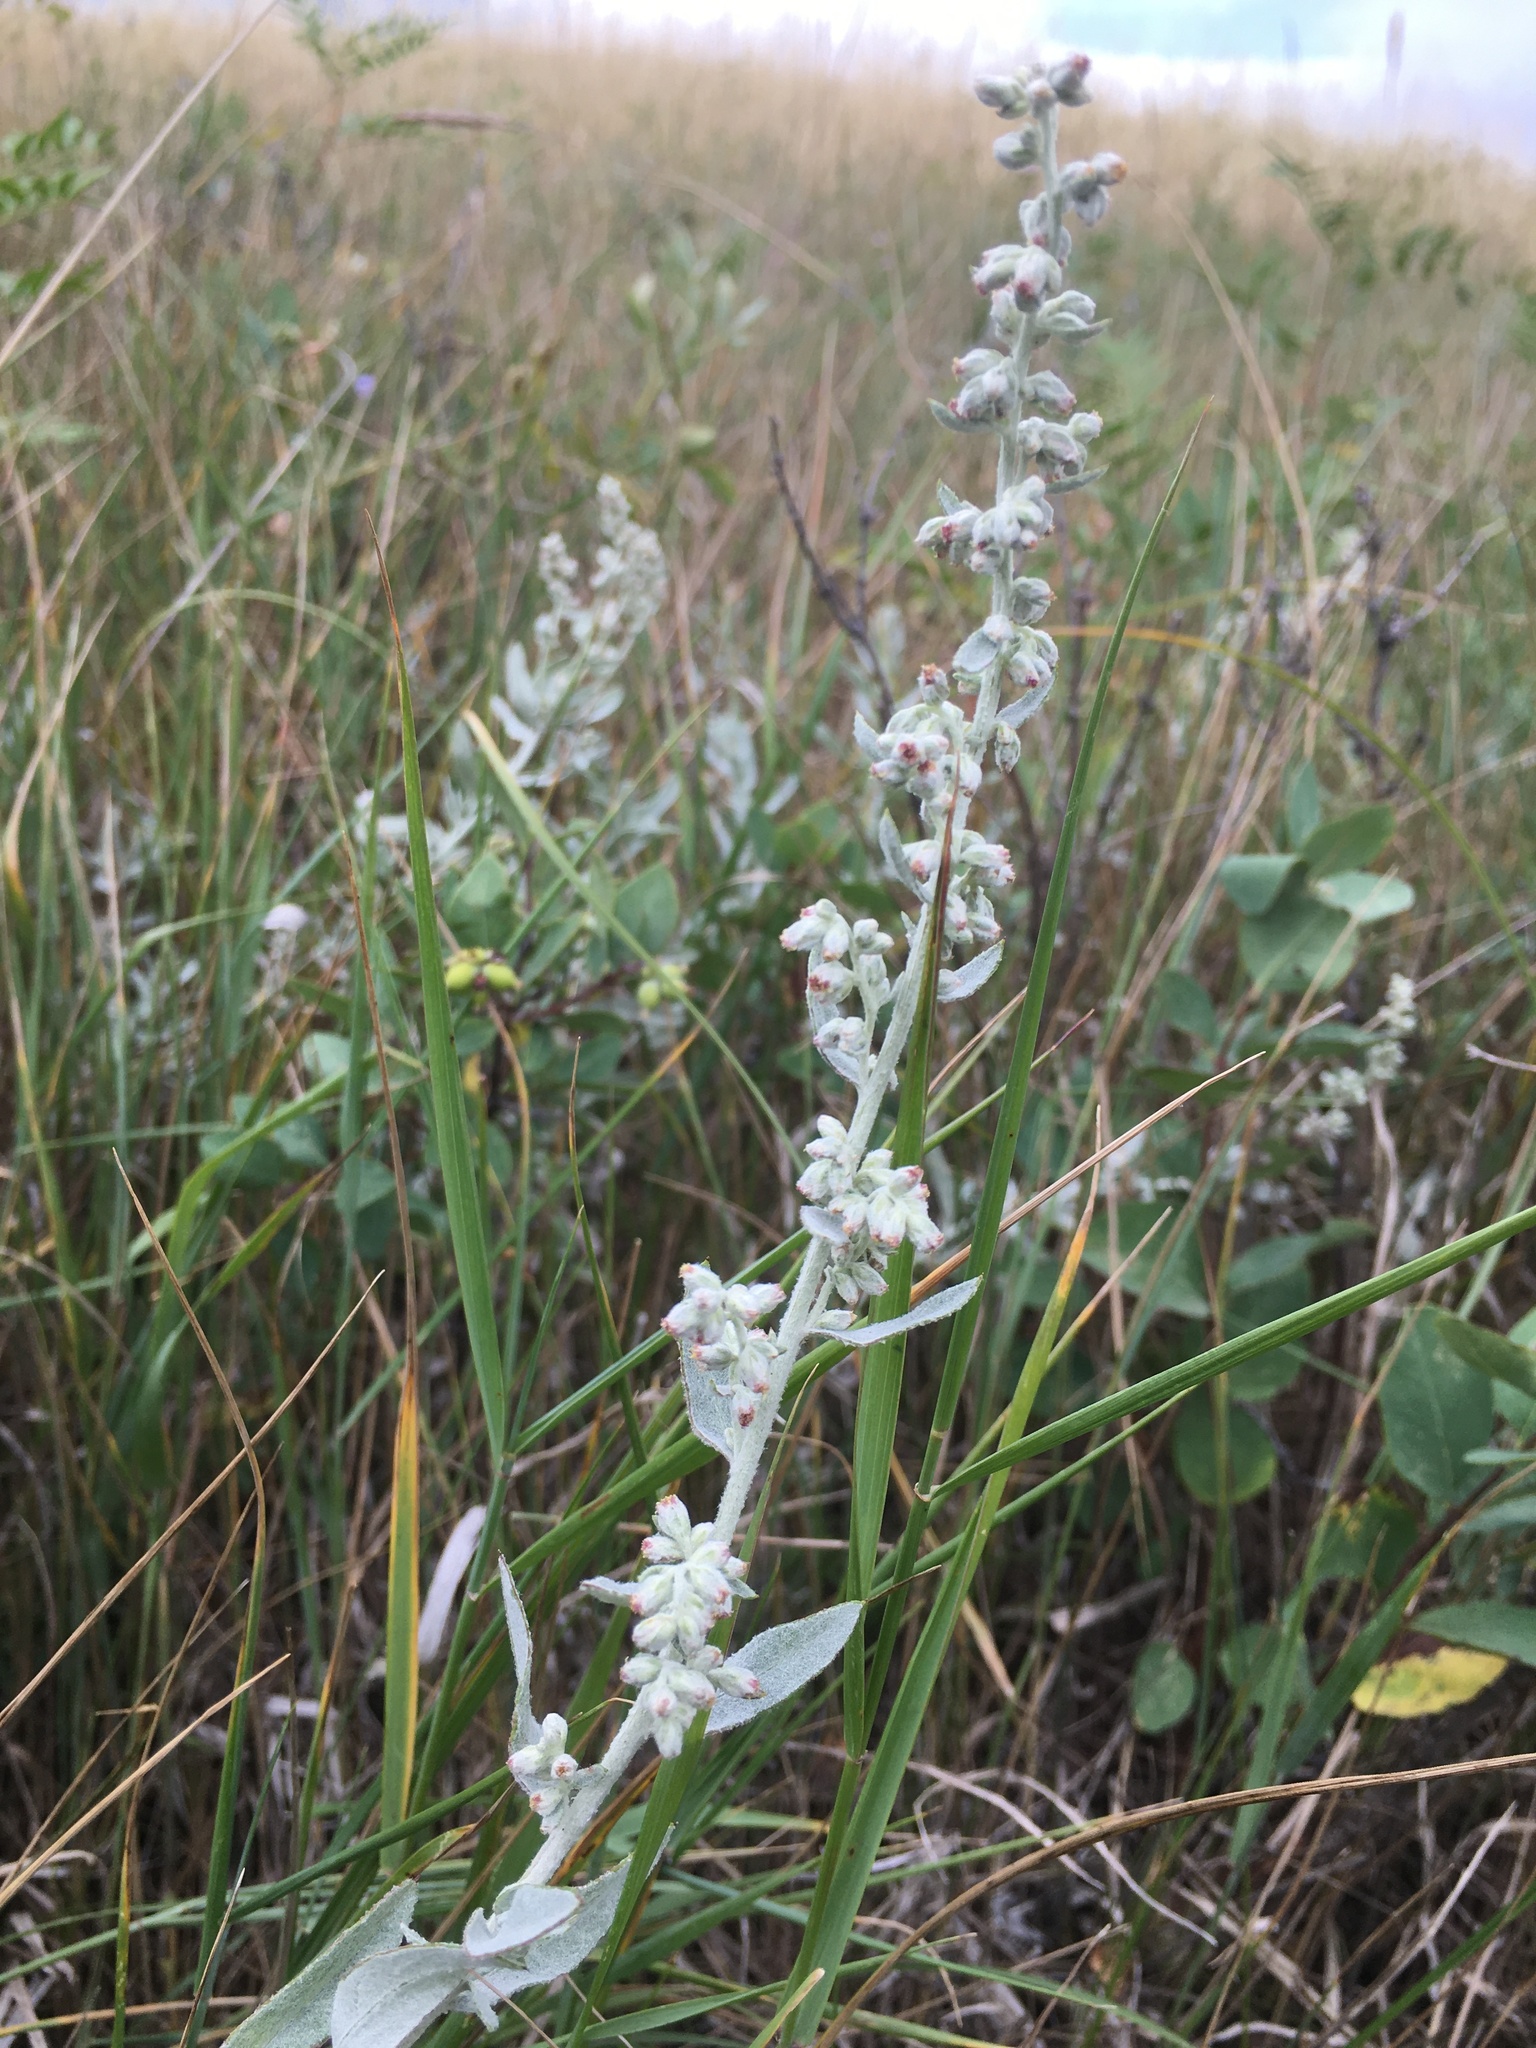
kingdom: Plantae
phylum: Tracheophyta
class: Magnoliopsida
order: Asterales
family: Asteraceae
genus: Artemisia
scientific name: Artemisia ludoviciana
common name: Western mugwort
